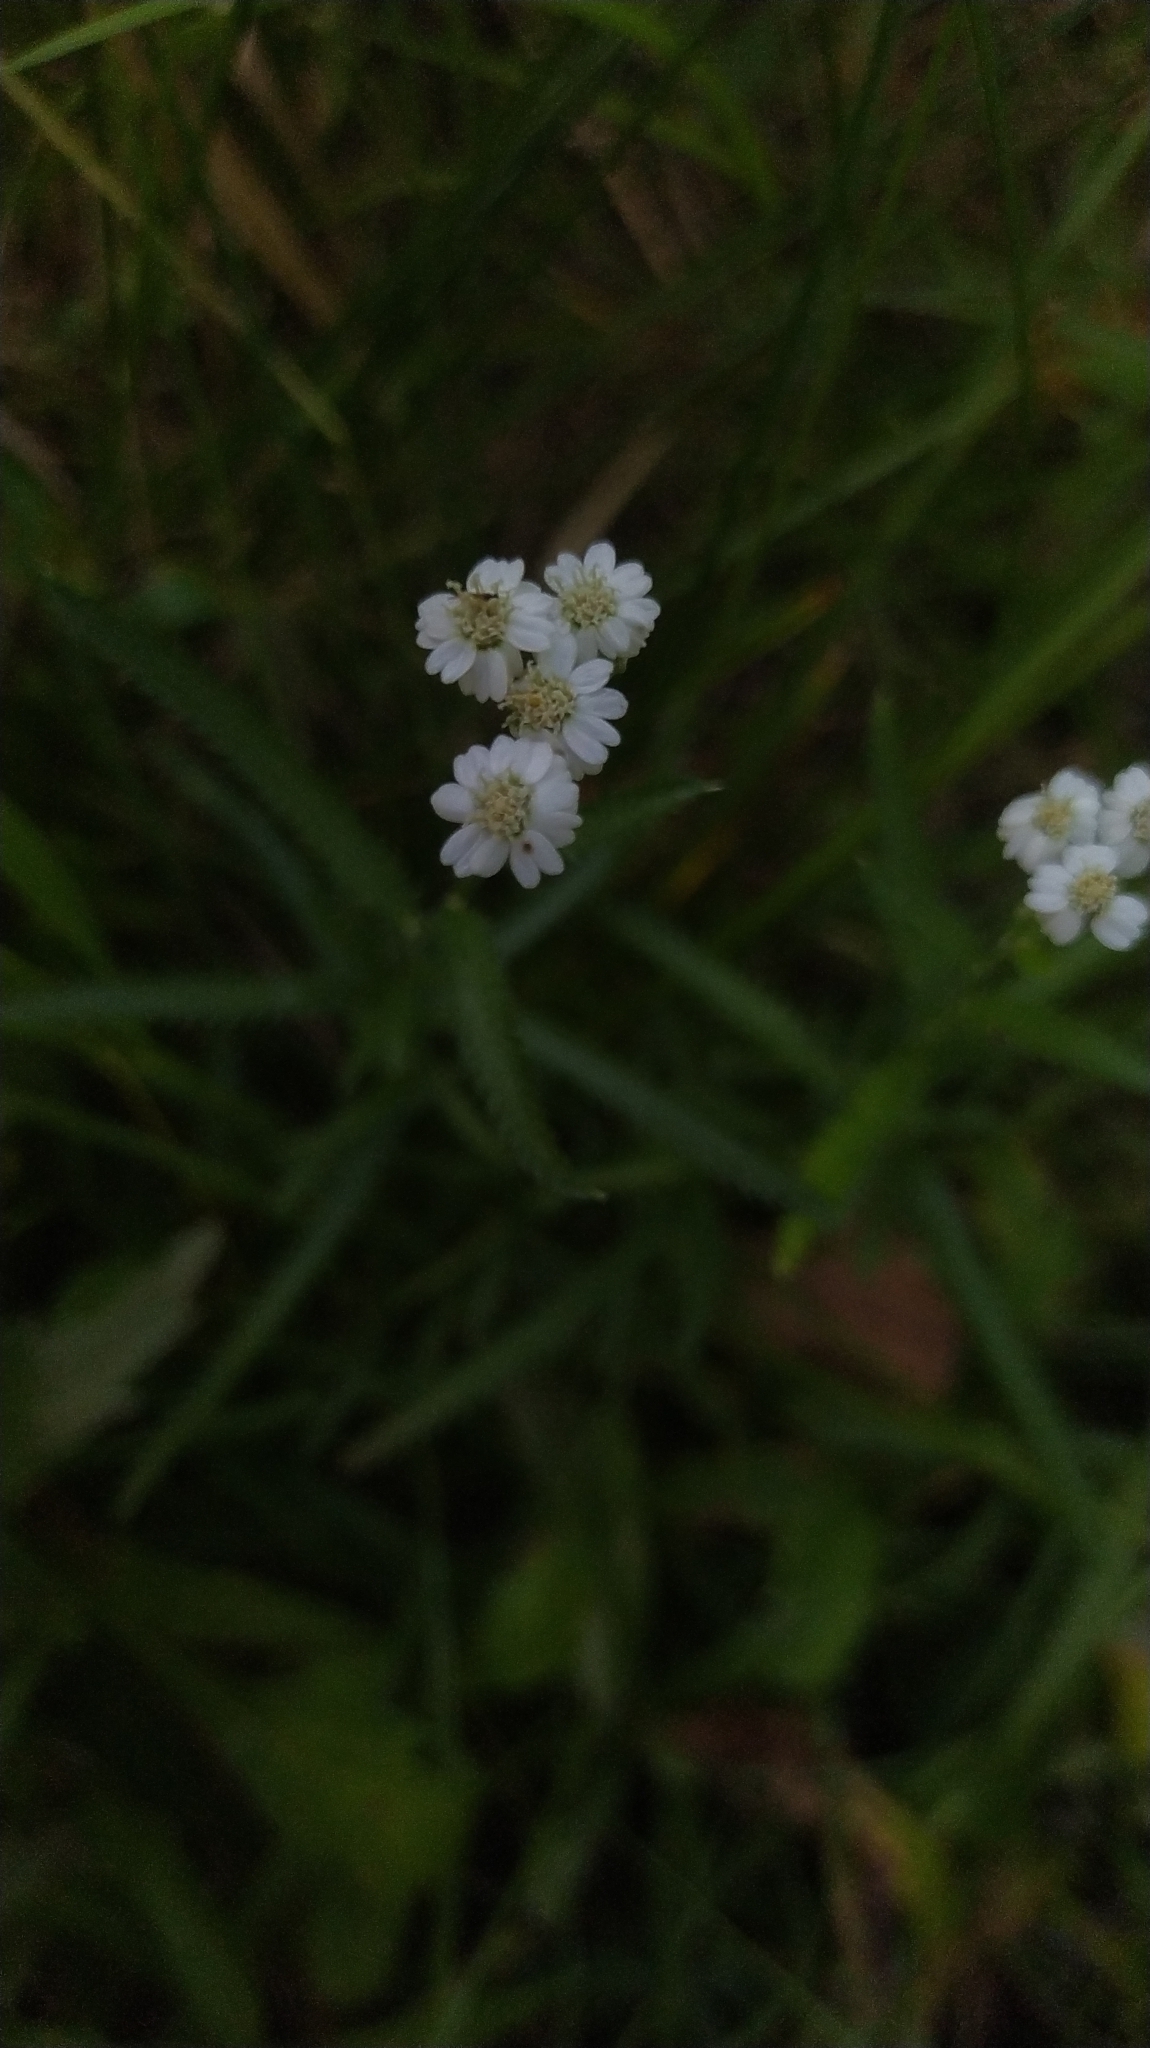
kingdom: Plantae
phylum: Tracheophyta
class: Magnoliopsida
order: Asterales
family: Asteraceae
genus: Achillea
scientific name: Achillea alpina
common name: Siberian yarrow
